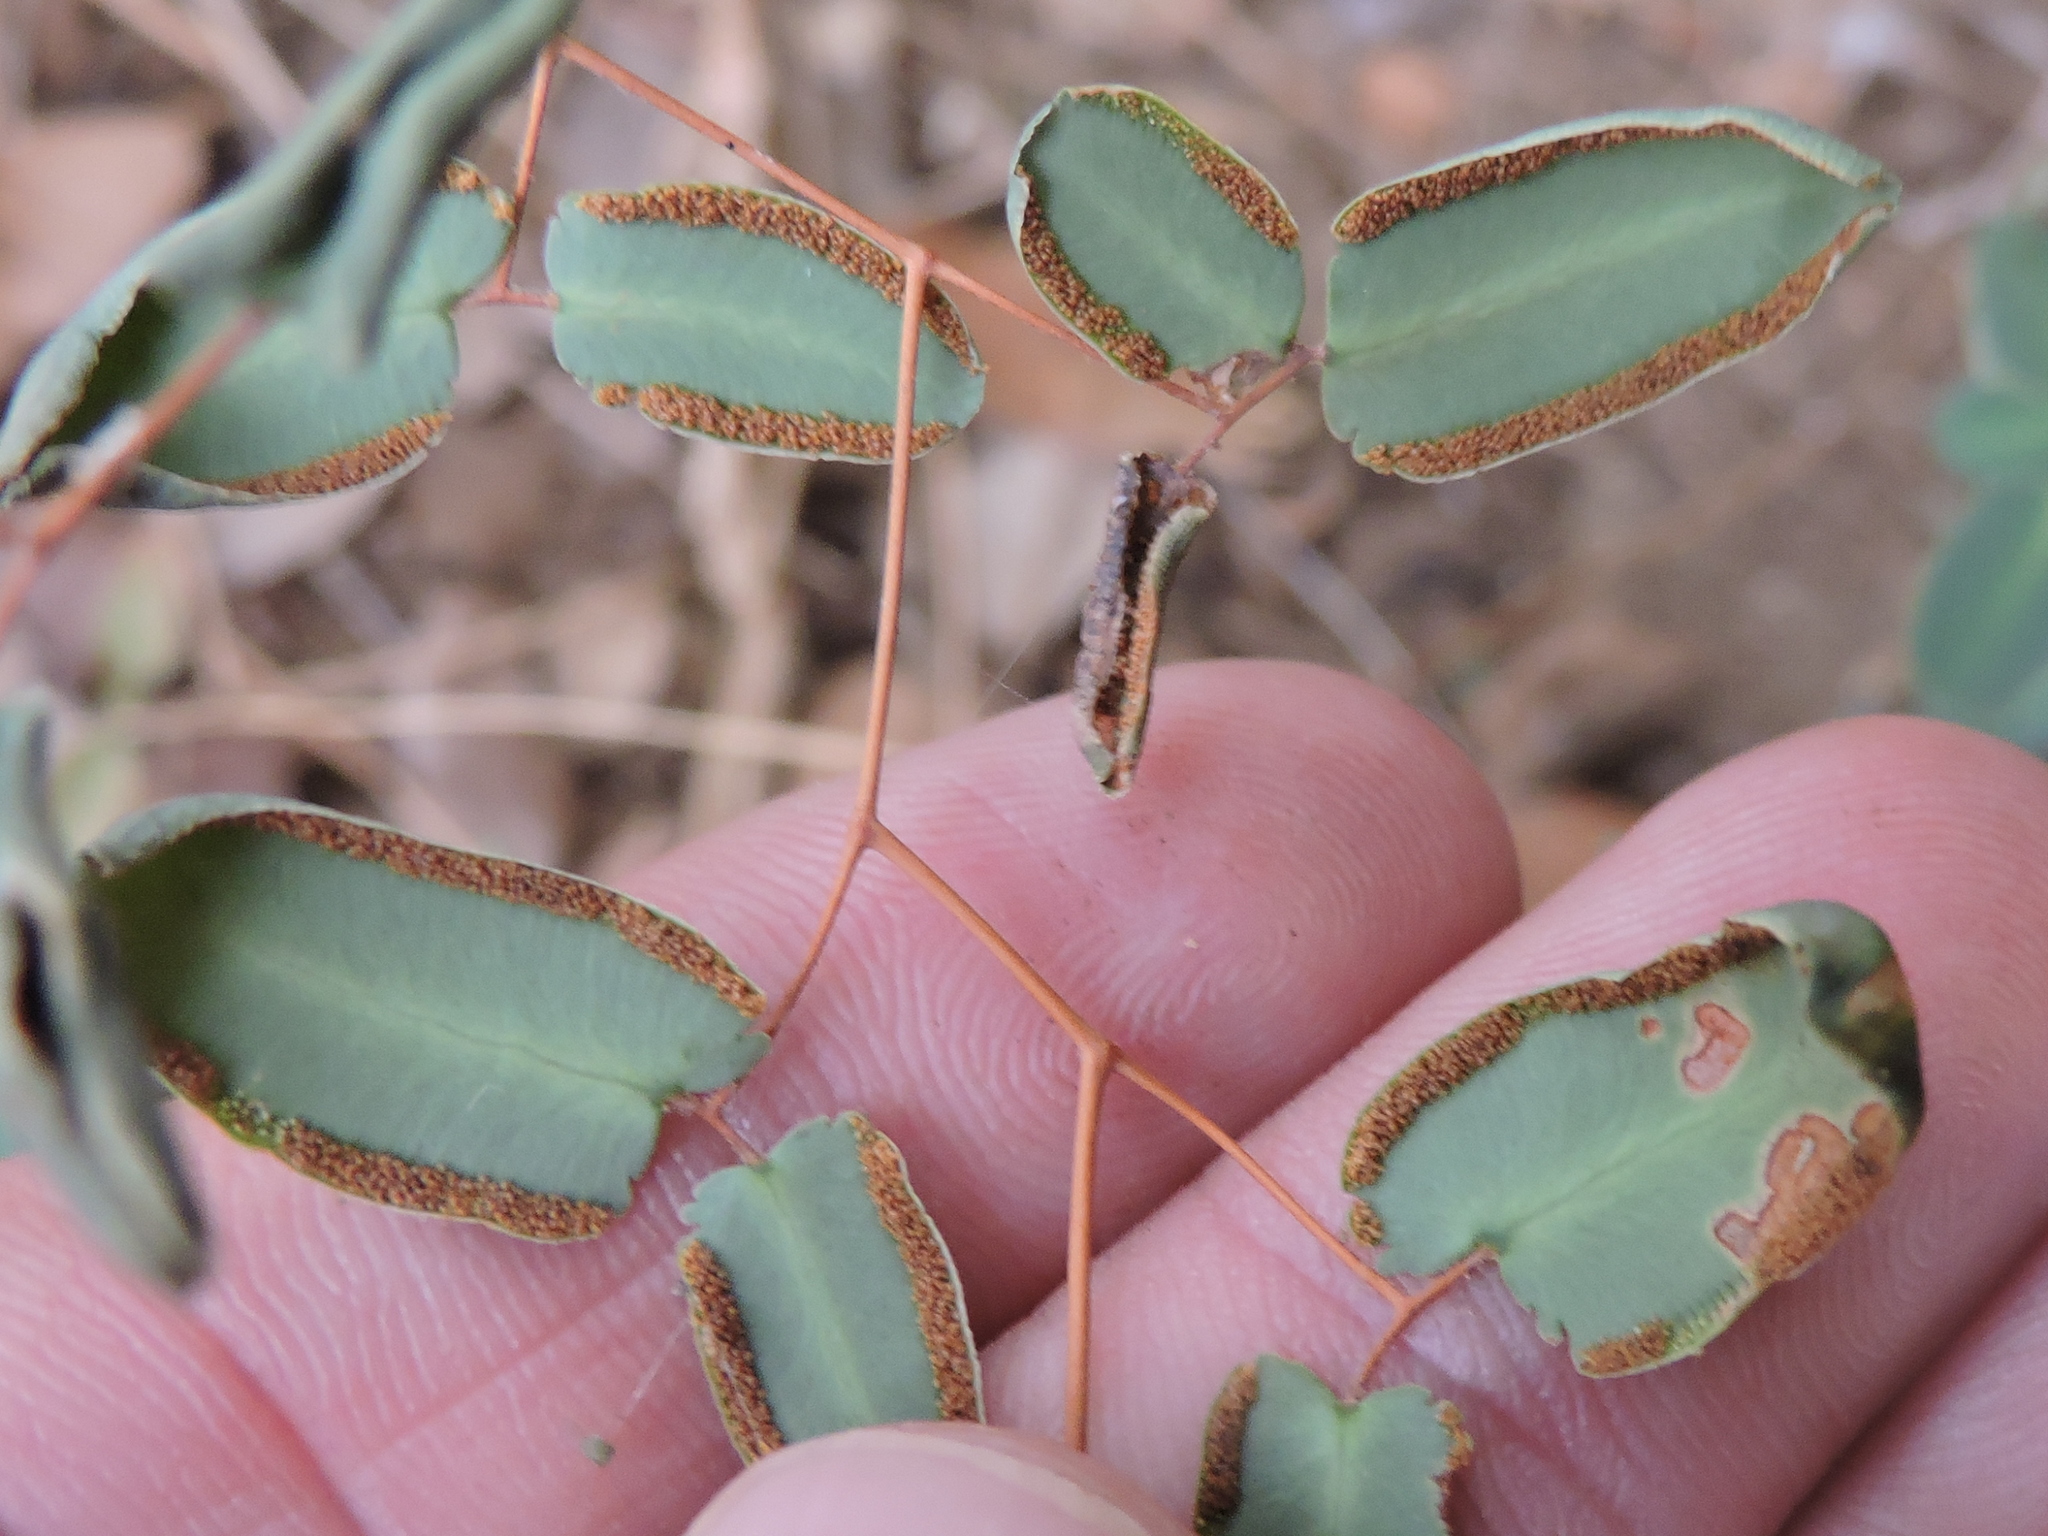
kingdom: Plantae
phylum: Tracheophyta
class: Polypodiopsida
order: Polypodiales
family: Pteridaceae
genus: Pellaea
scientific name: Pellaea ovata
